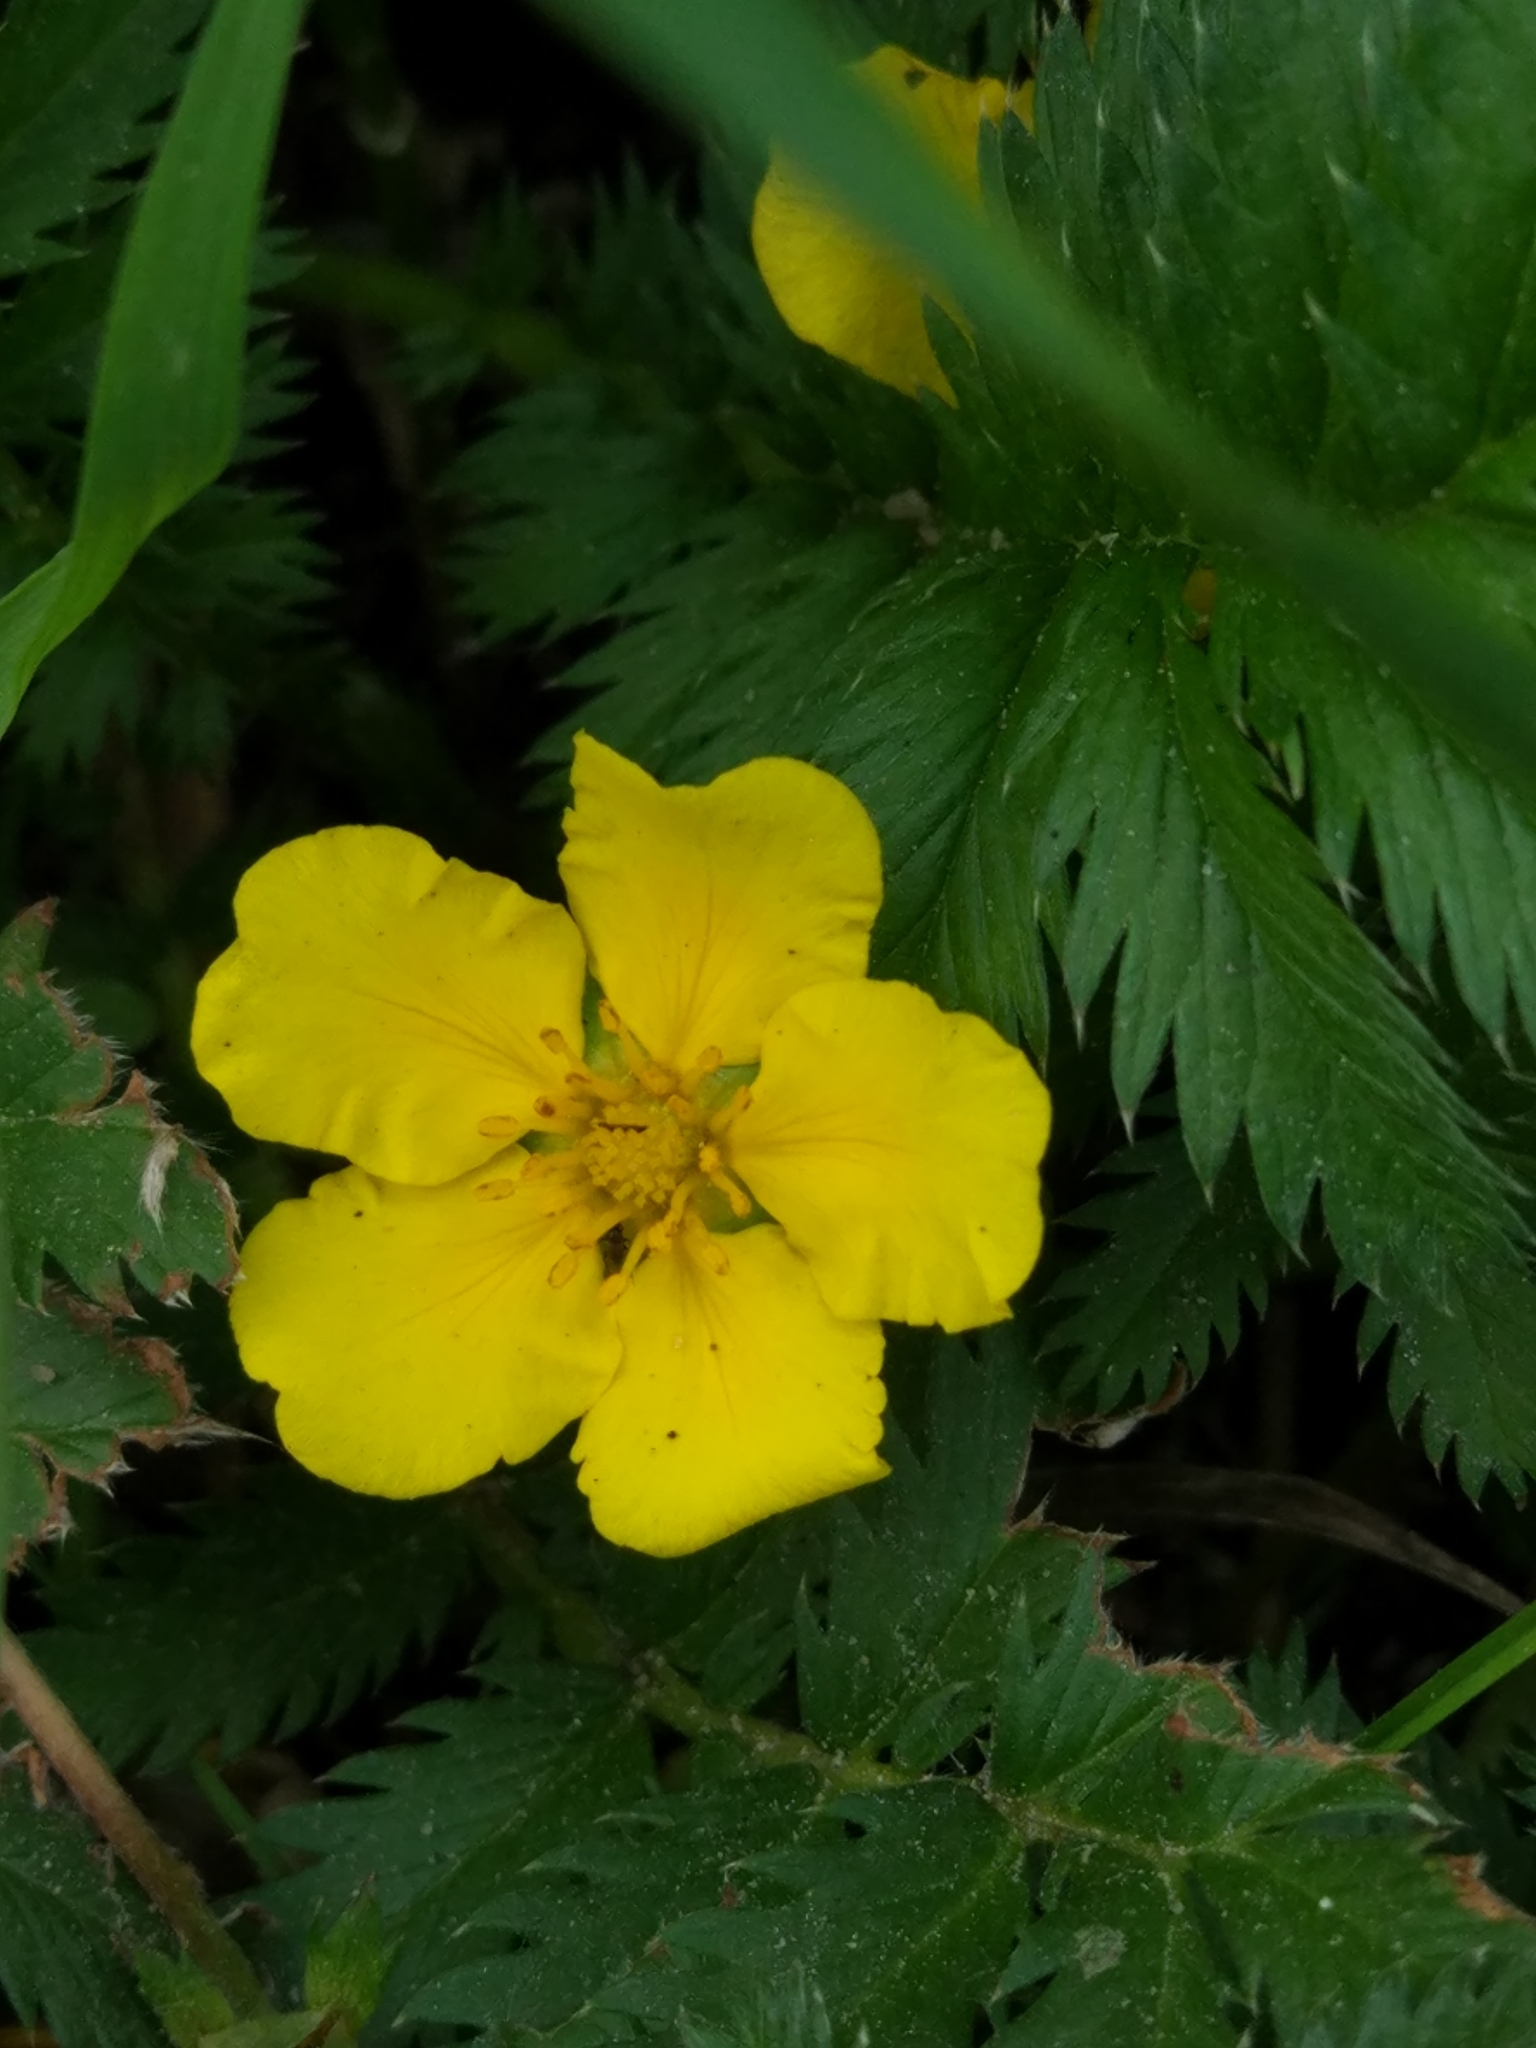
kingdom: Plantae
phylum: Tracheophyta
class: Magnoliopsida
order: Rosales
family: Rosaceae
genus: Argentina
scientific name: Argentina anserina
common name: Common silverweed
